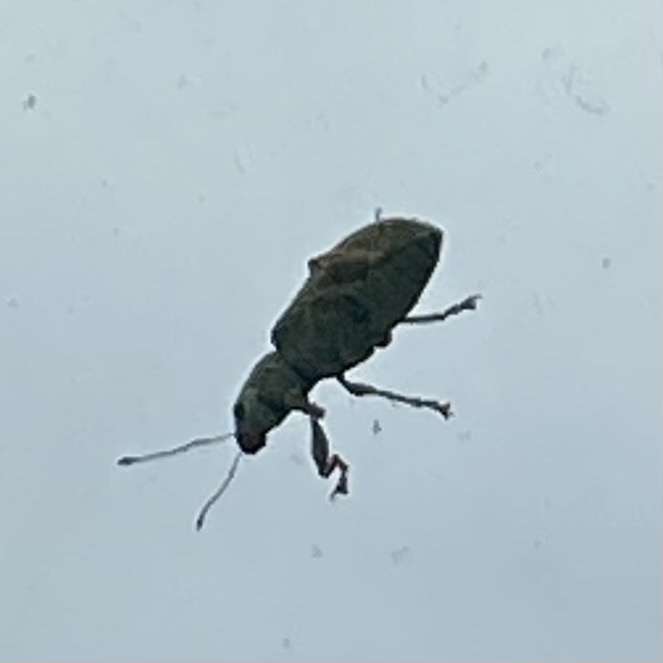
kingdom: Animalia
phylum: Arthropoda
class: Insecta
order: Coleoptera
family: Curculionidae
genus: Pachyrhinus
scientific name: Pachyrhinus lethierryi
